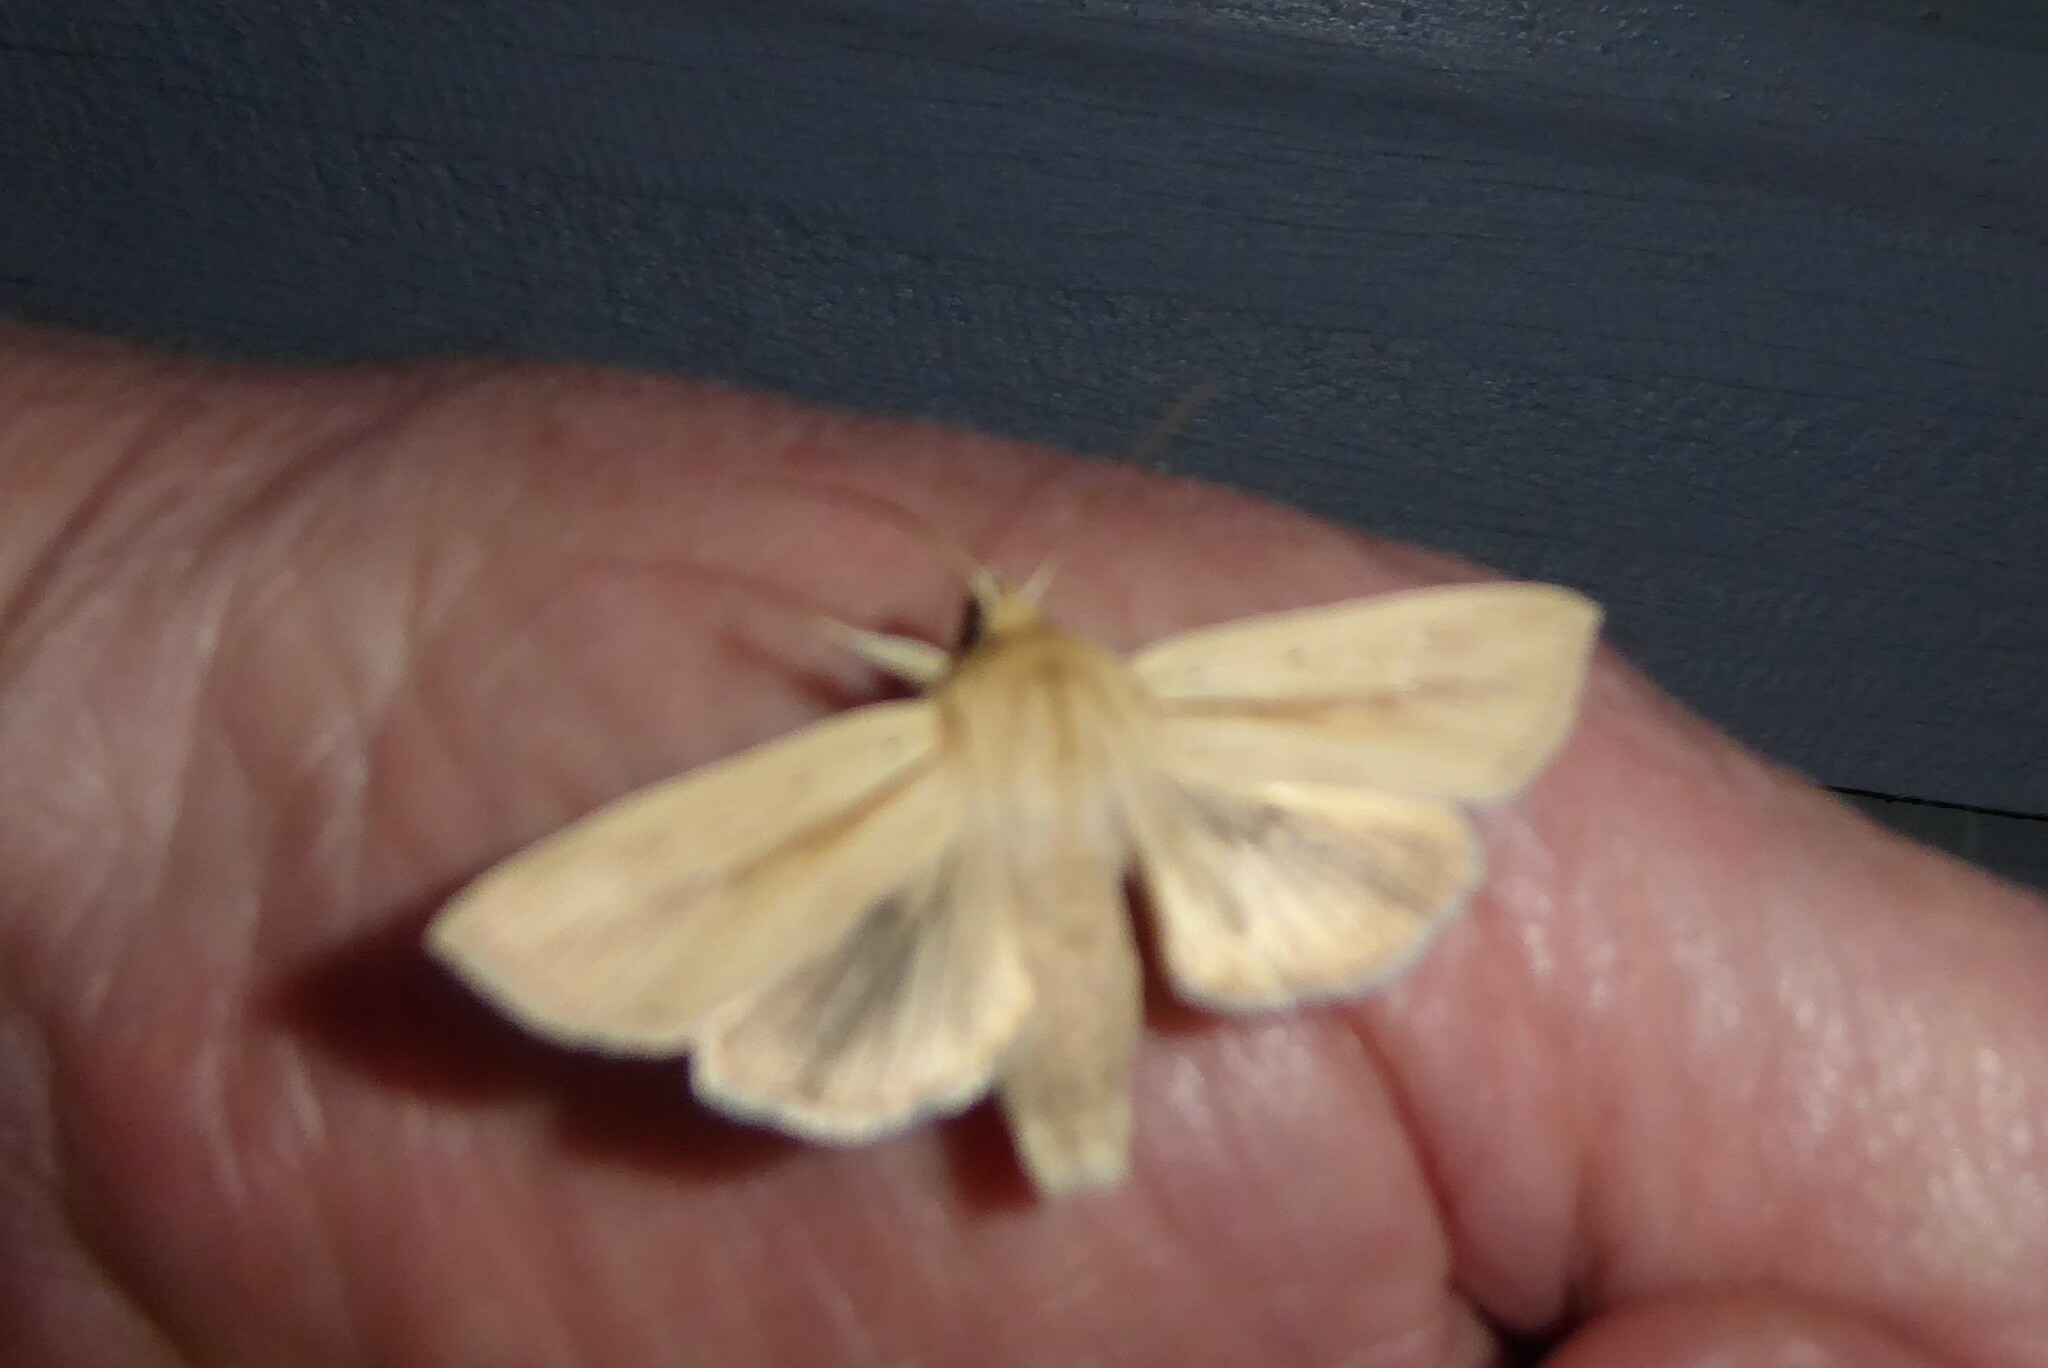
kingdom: Animalia
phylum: Arthropoda
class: Insecta
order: Lepidoptera
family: Noctuidae
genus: Ichneutica
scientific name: Ichneutica semivittata
